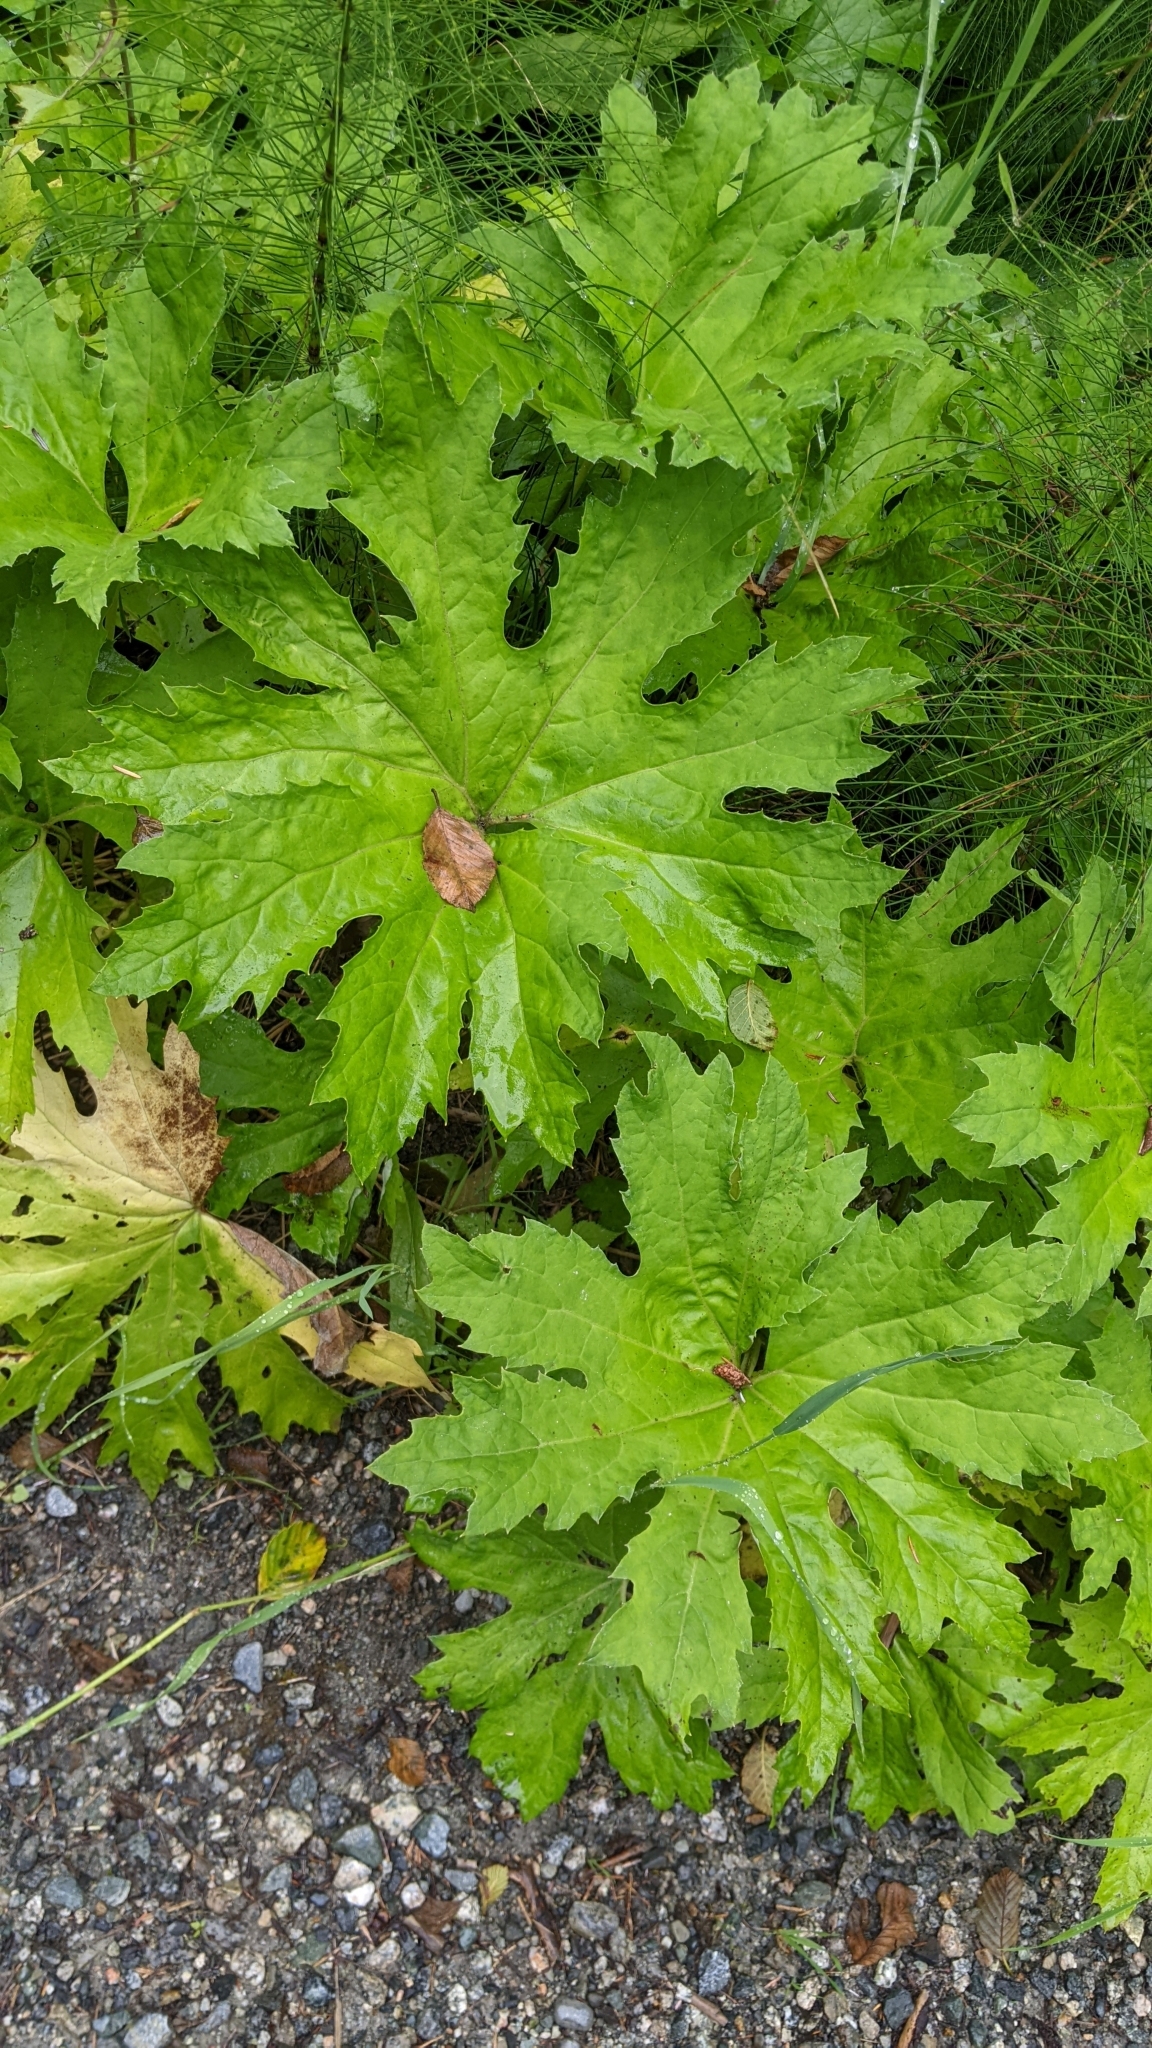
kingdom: Plantae
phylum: Tracheophyta
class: Magnoliopsida
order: Asterales
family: Asteraceae
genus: Petasites
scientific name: Petasites frigidus
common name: Arctic butterbur
